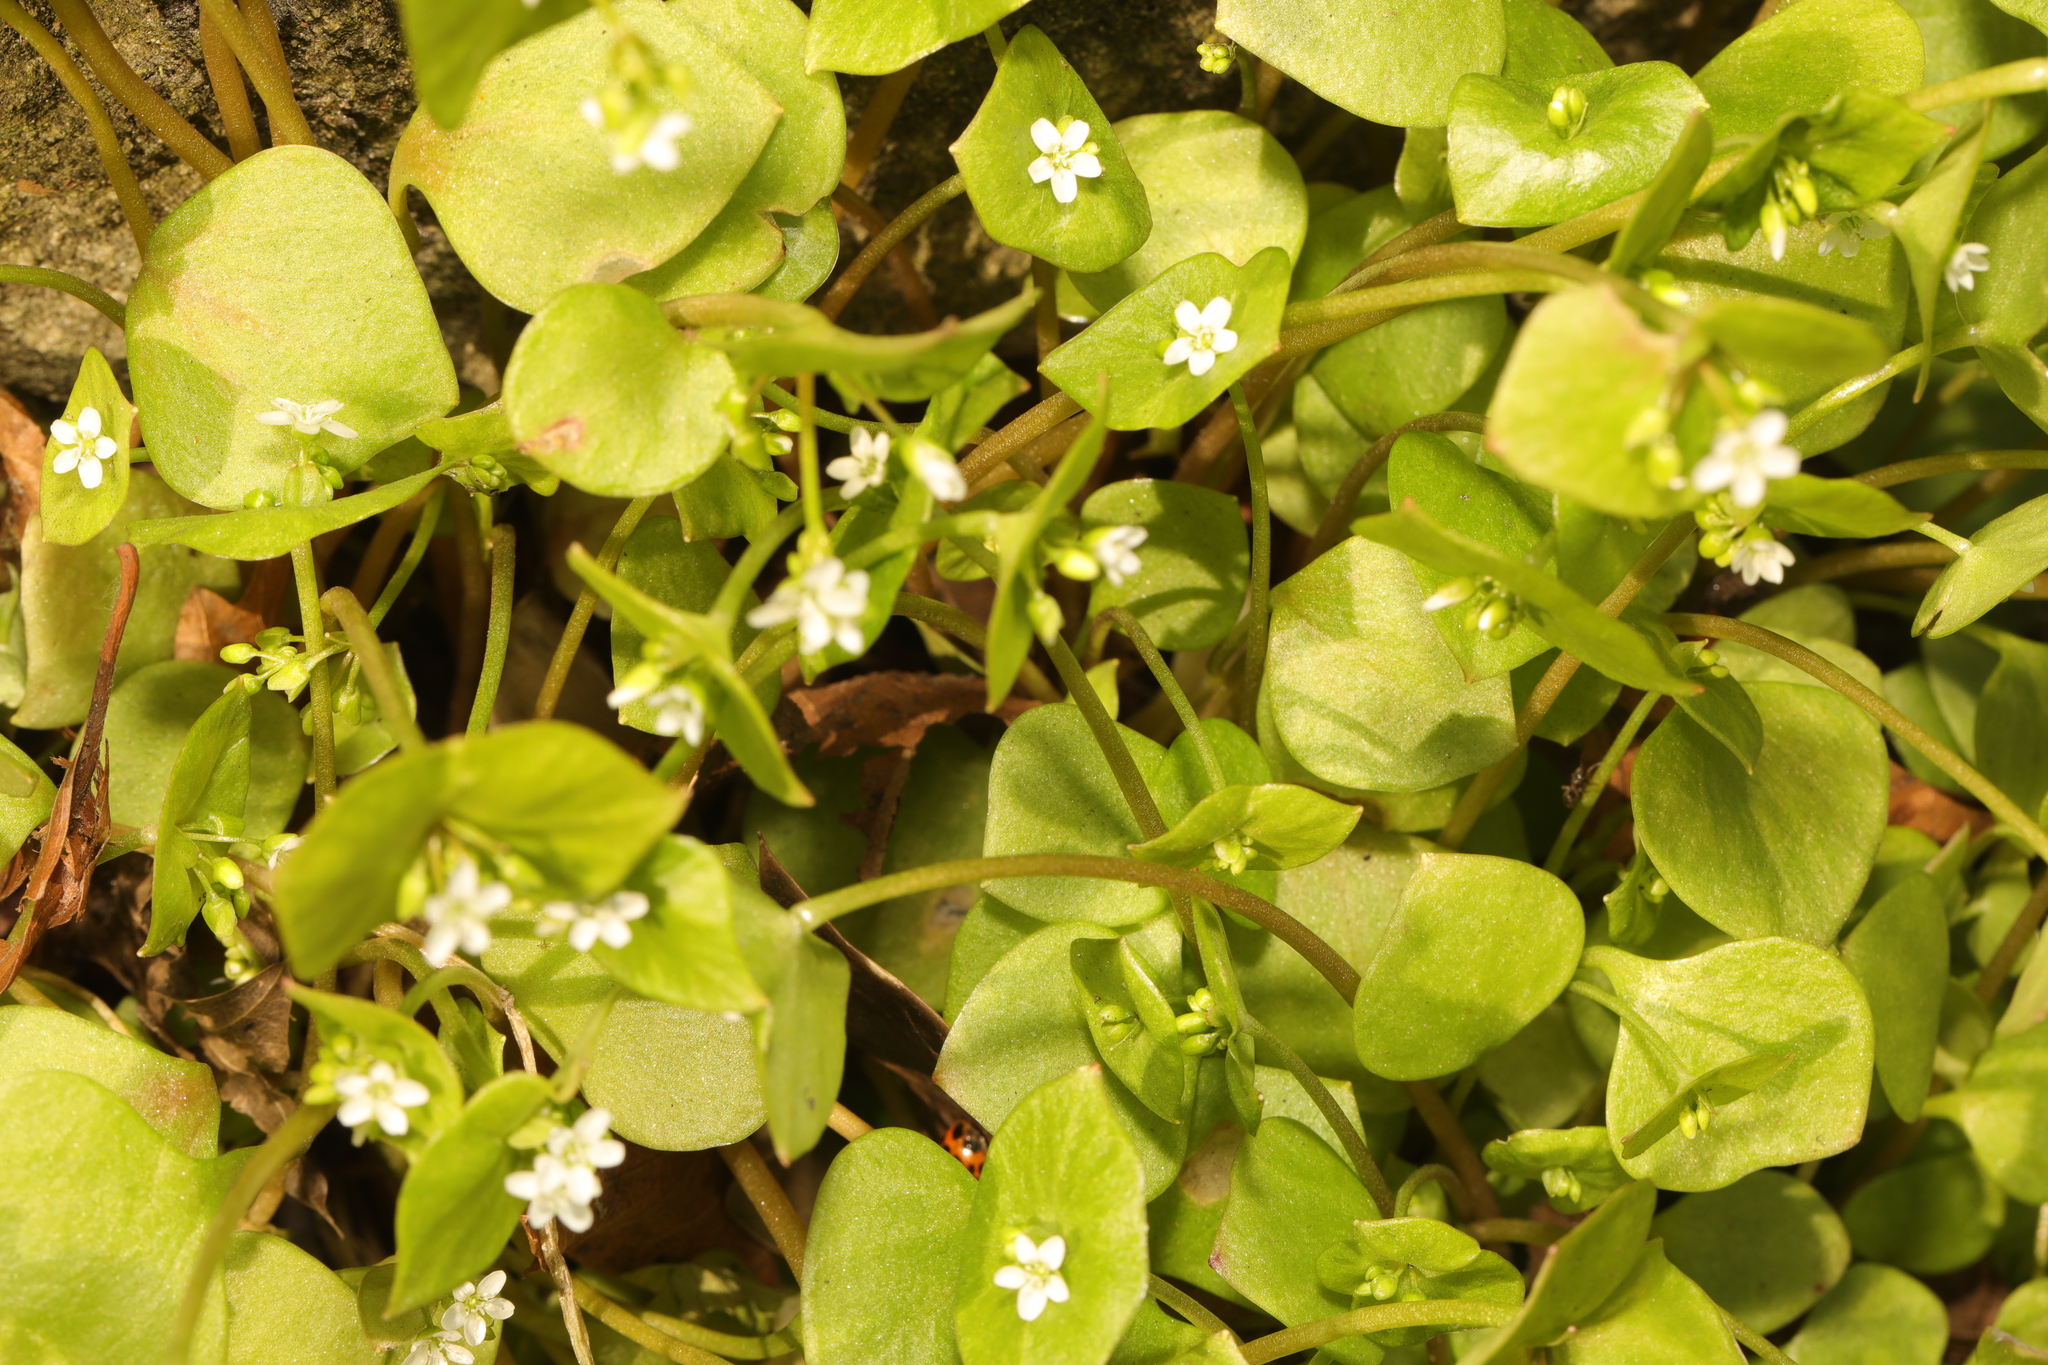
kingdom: Plantae
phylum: Tracheophyta
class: Magnoliopsida
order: Caryophyllales
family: Montiaceae
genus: Claytonia
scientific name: Claytonia perfoliata
